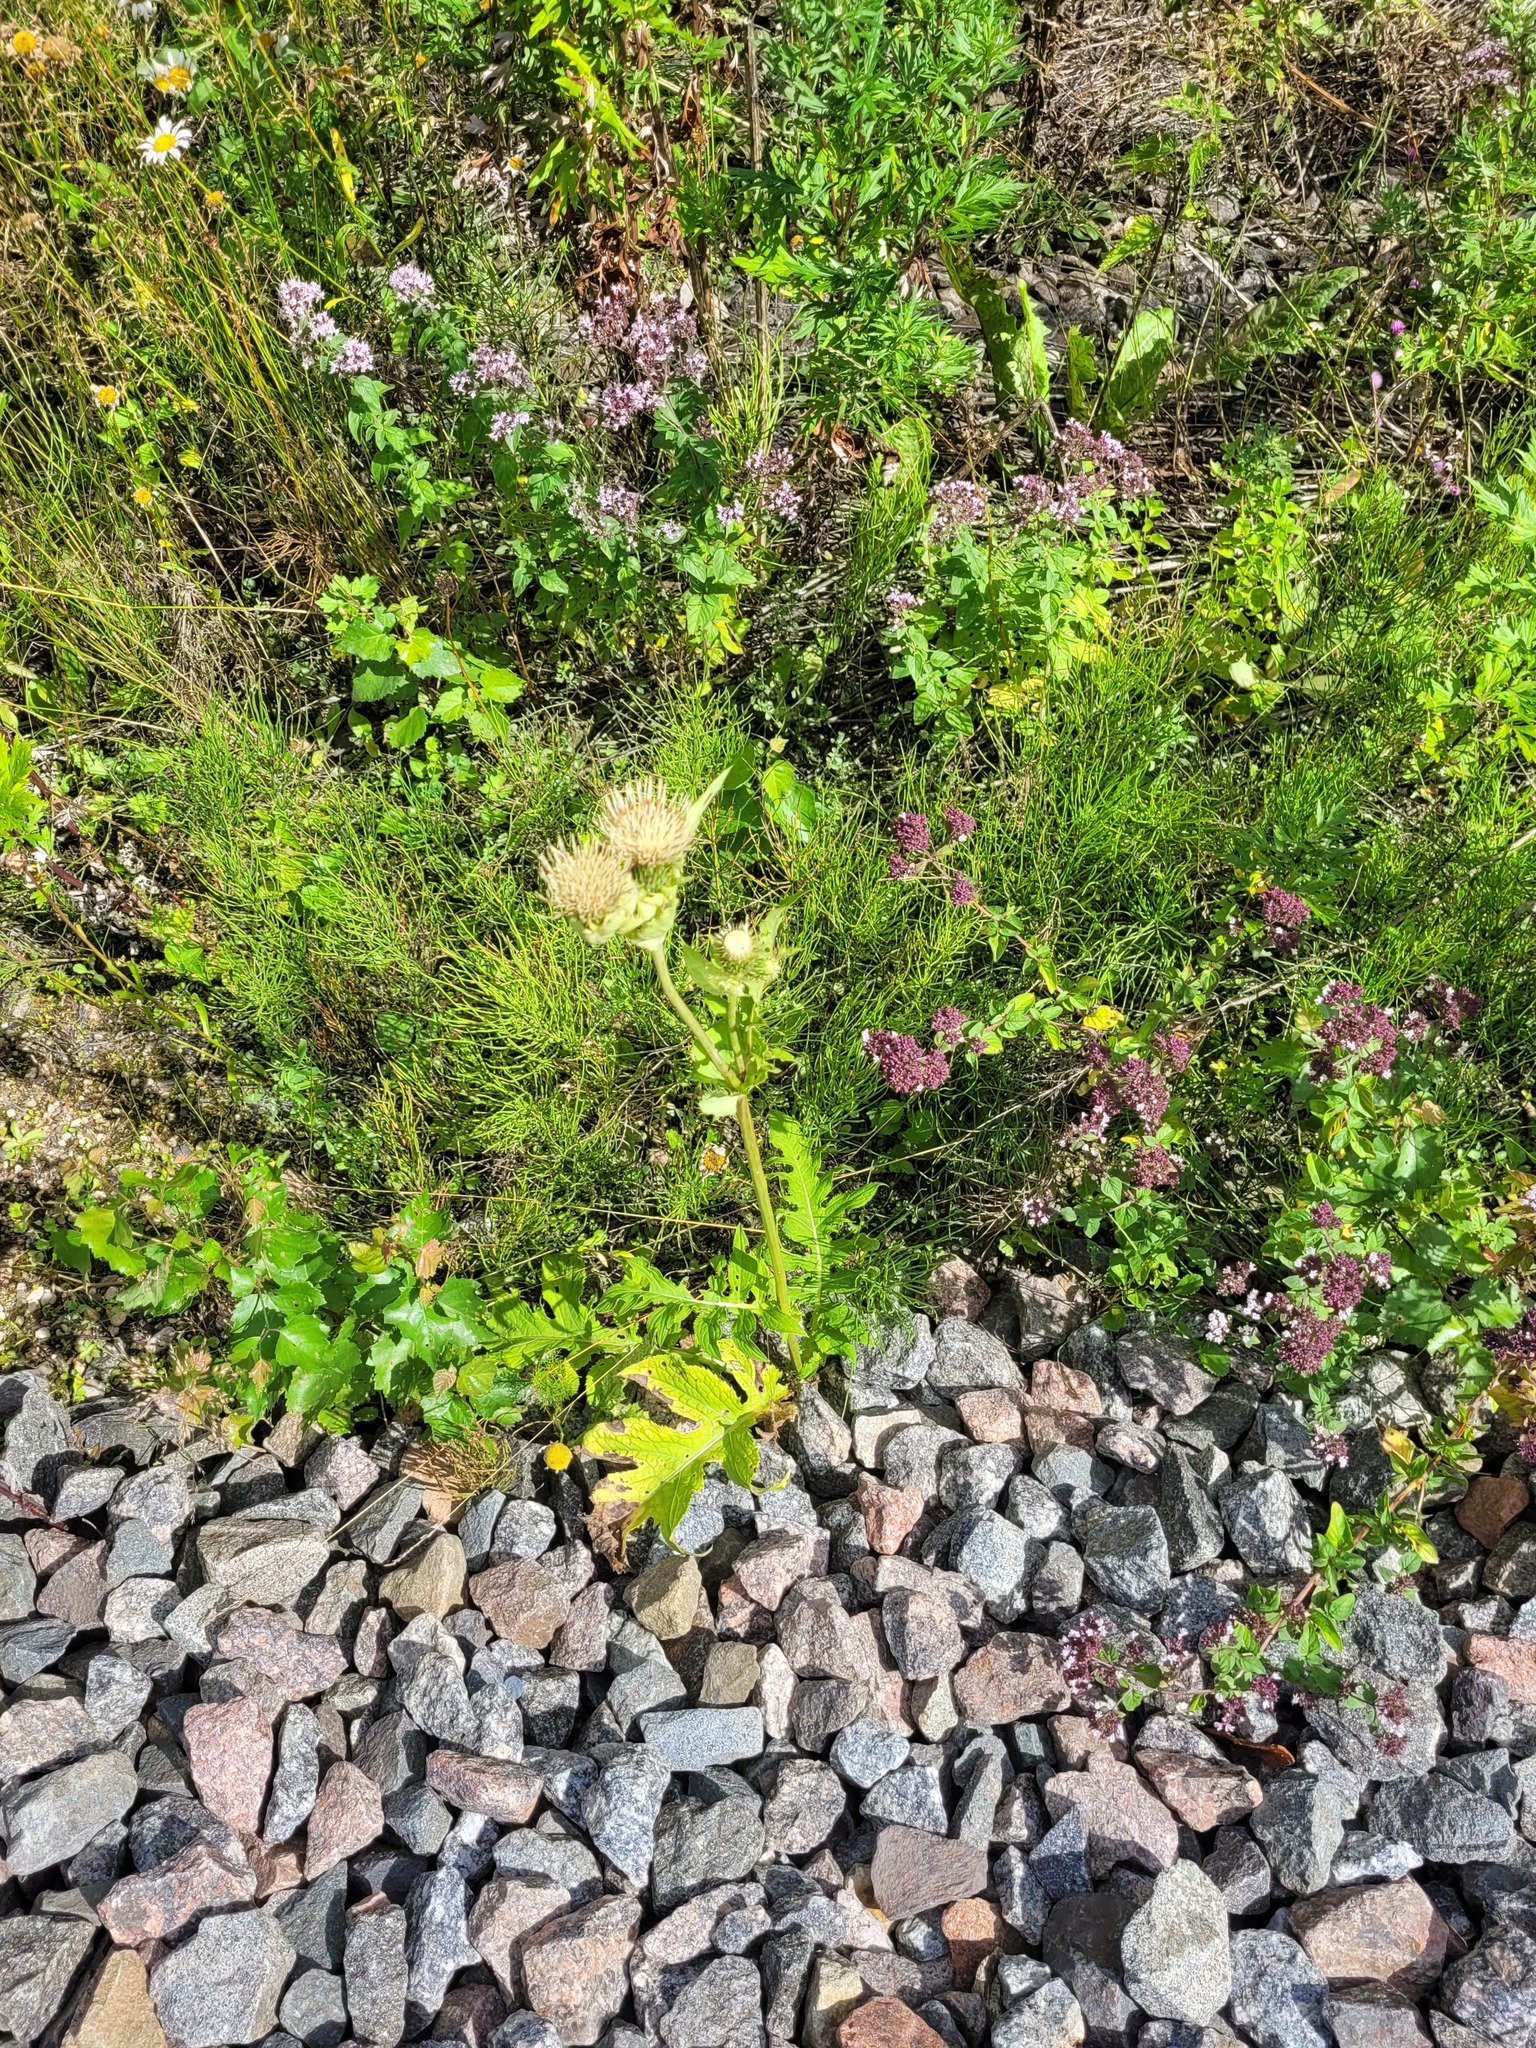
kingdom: Plantae
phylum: Tracheophyta
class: Magnoliopsida
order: Asterales
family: Asteraceae
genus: Cirsium
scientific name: Cirsium oleraceum
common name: Cabbage thistle
